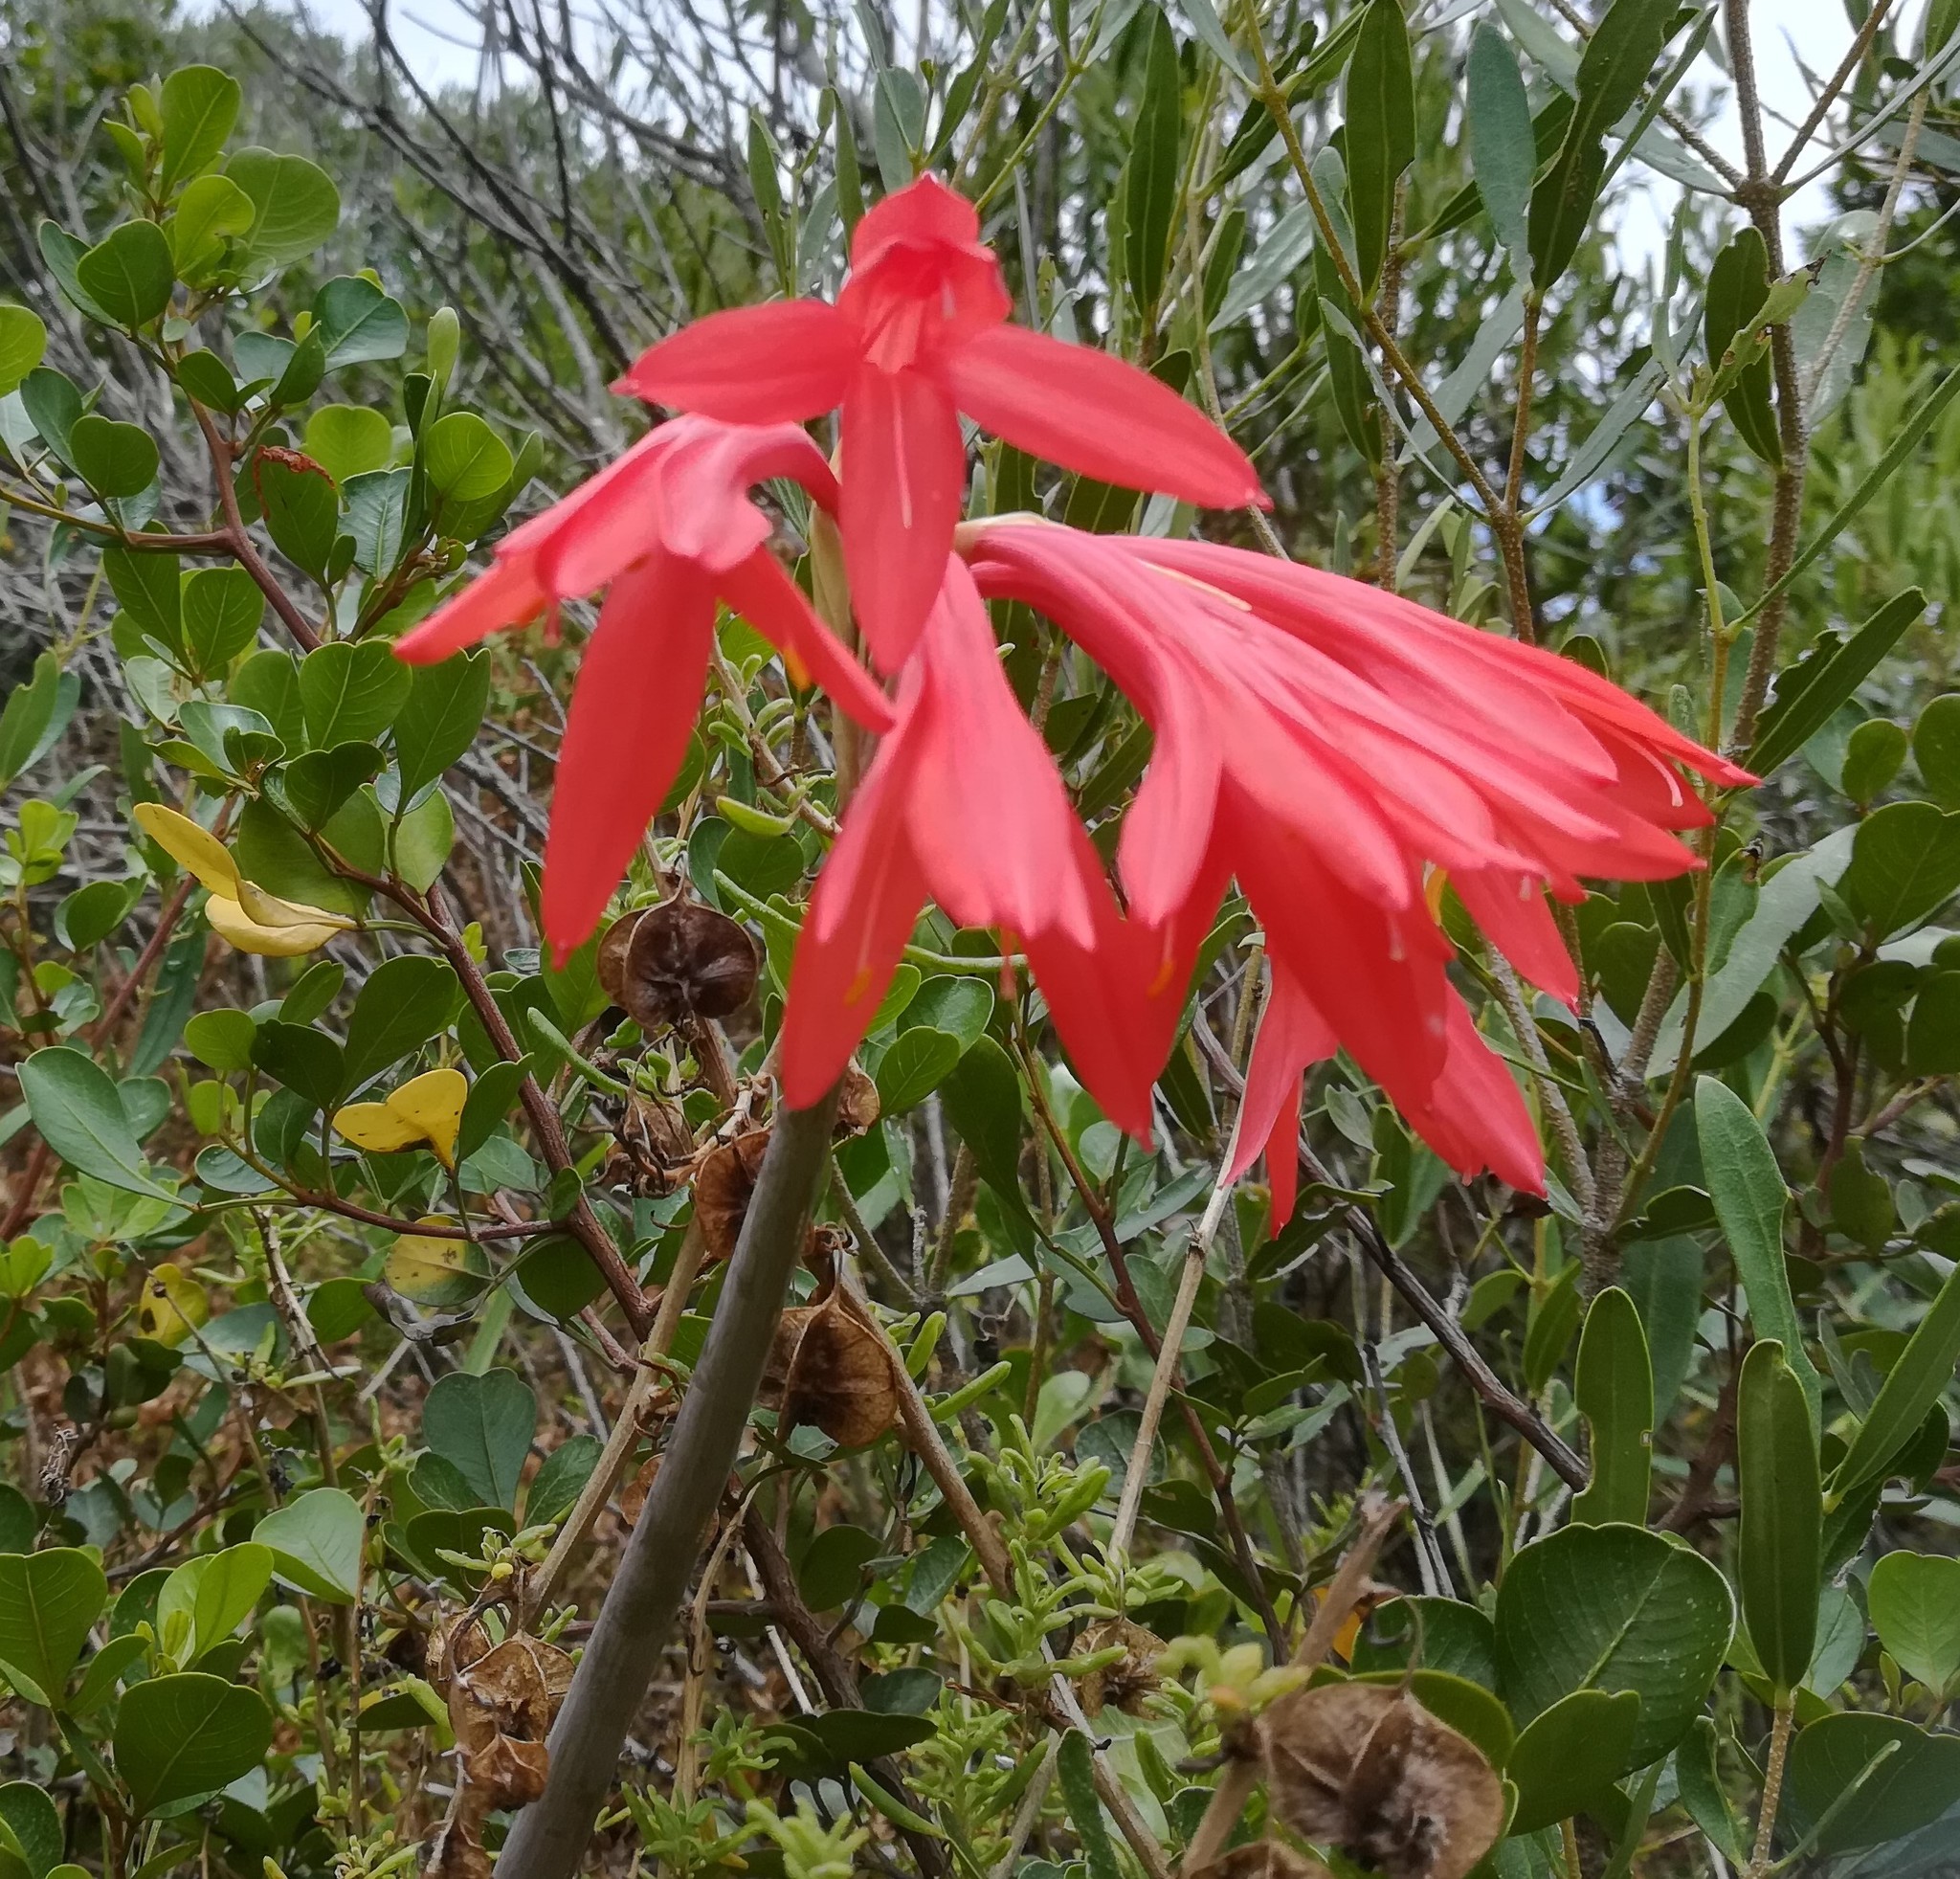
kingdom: Plantae
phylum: Tracheophyta
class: Liliopsida
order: Asparagales
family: Amaryllidaceae
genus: Cyrtanthus
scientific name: Cyrtanthus fergusoniae
